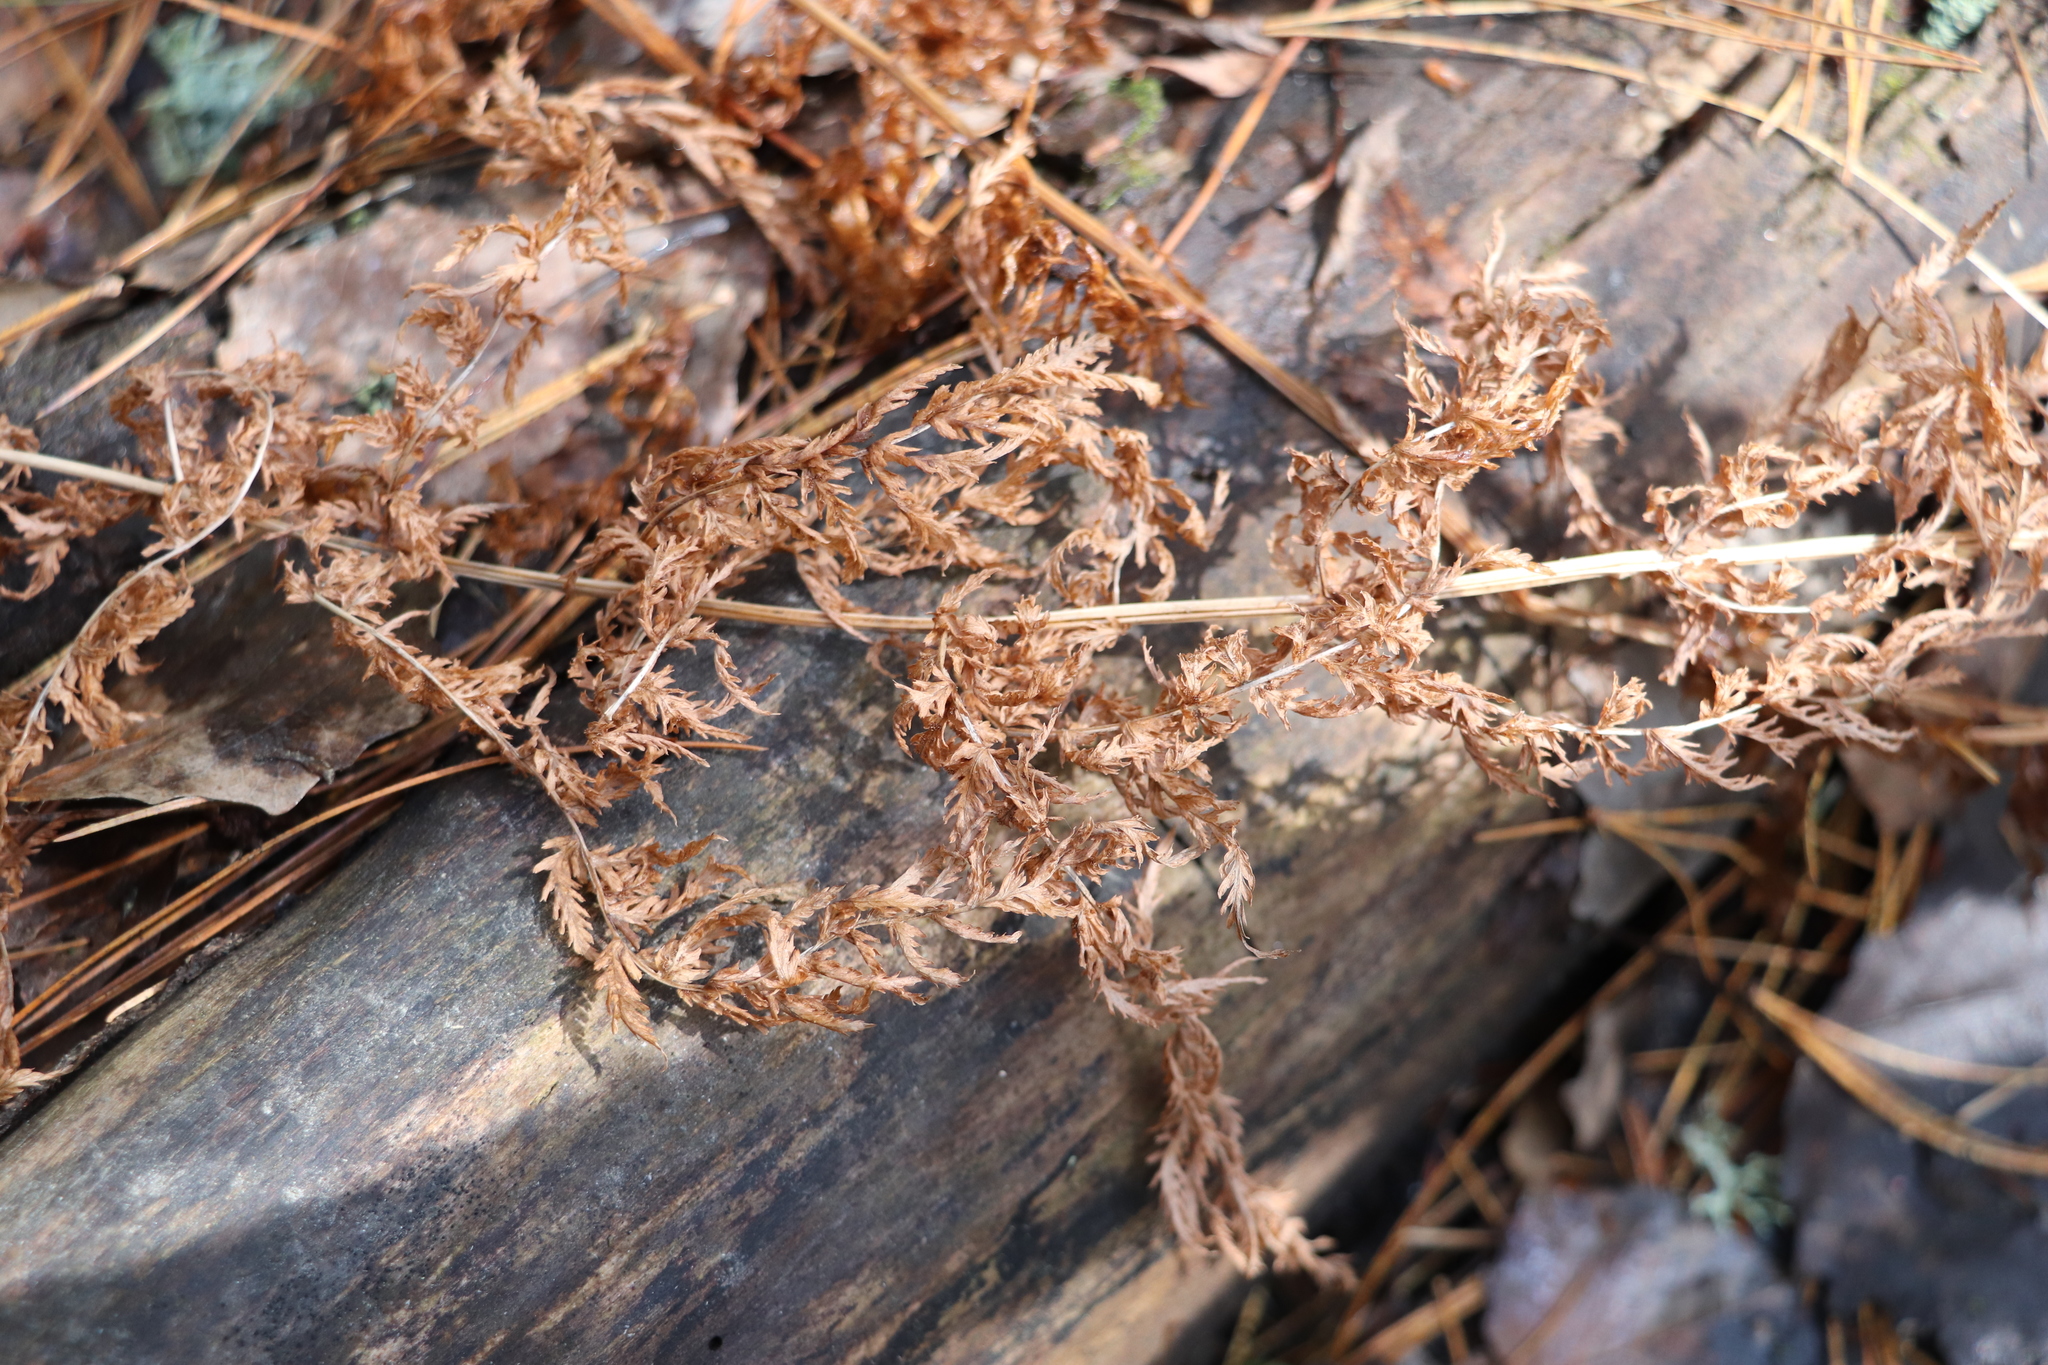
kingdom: Plantae
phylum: Tracheophyta
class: Polypodiopsida
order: Polypodiales
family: Athyriaceae
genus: Athyrium
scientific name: Athyrium filix-femina
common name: Lady fern
